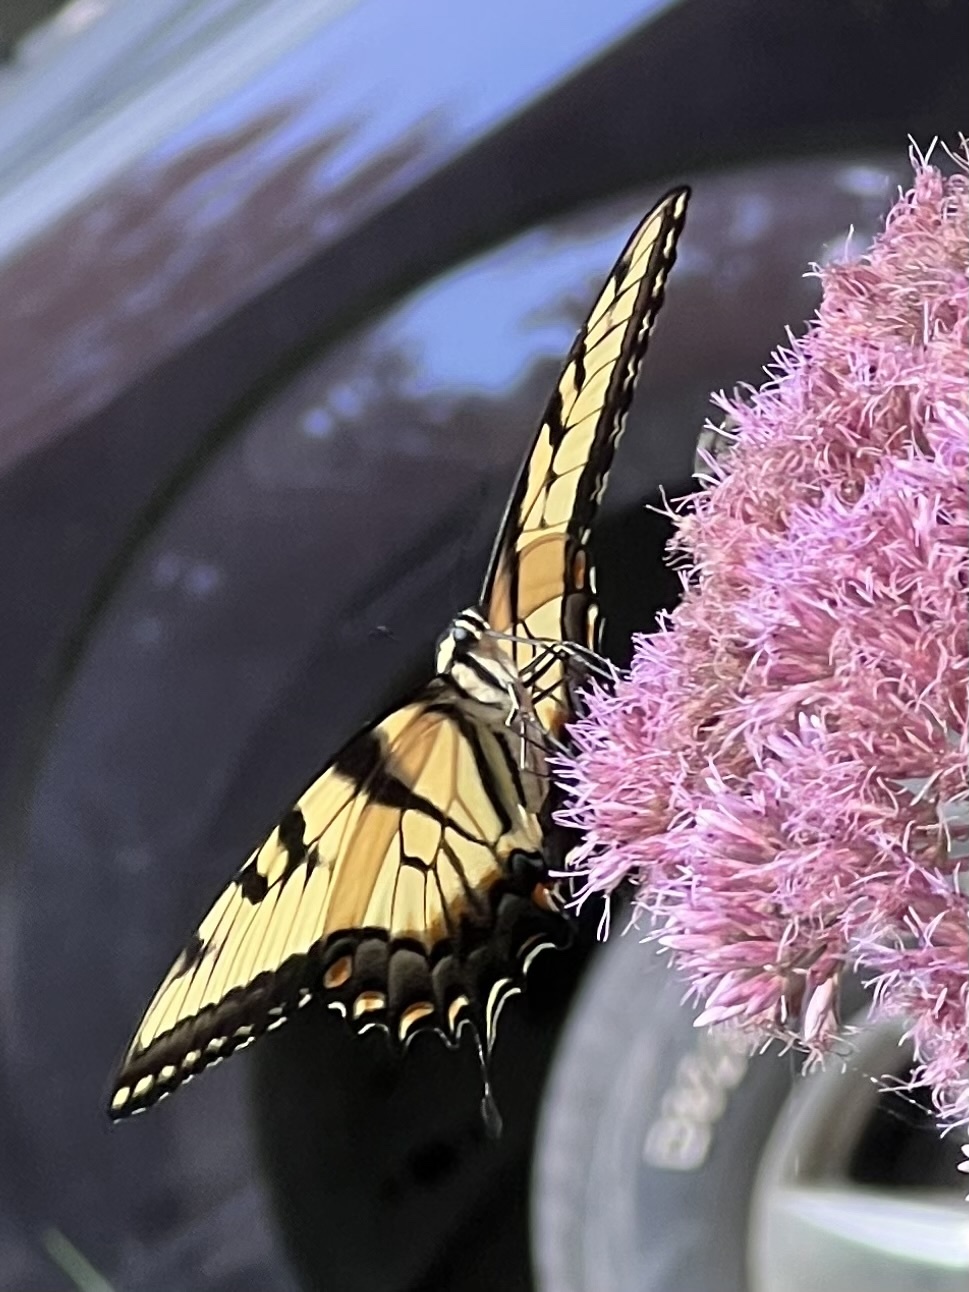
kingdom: Animalia
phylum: Arthropoda
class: Insecta
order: Lepidoptera
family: Papilionidae
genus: Papilio
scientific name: Papilio glaucus
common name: Tiger swallowtail
